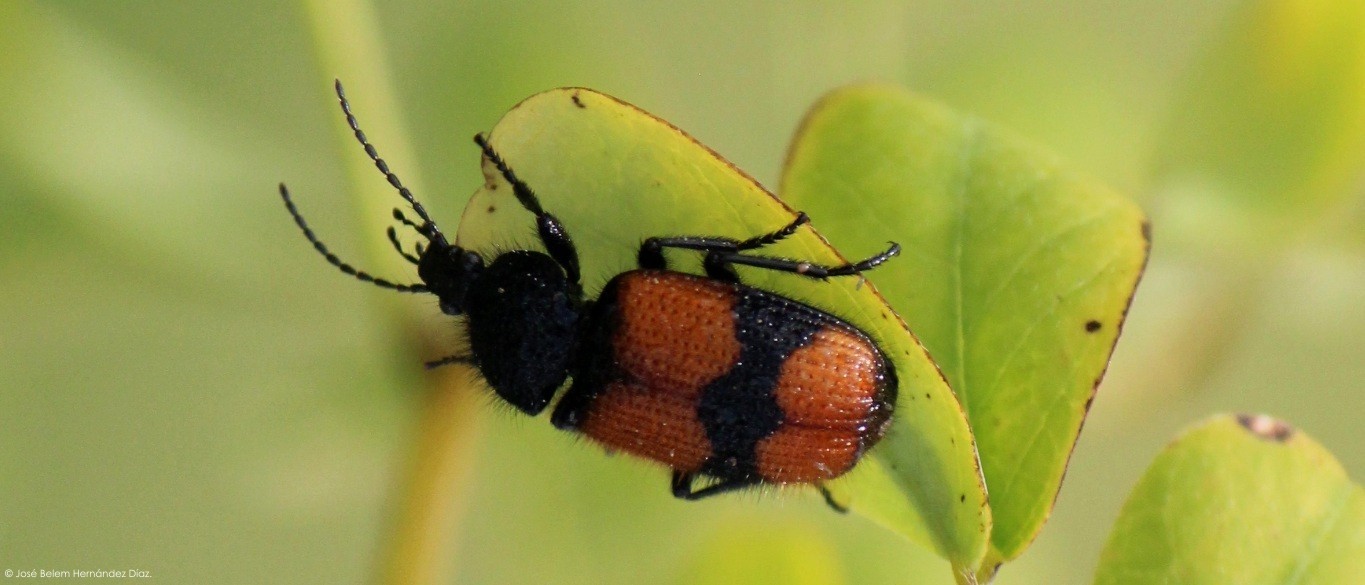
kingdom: Animalia
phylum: Arthropoda
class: Insecta
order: Coleoptera
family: Carabidae
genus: Panagaeus
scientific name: Panagaeus sallei
